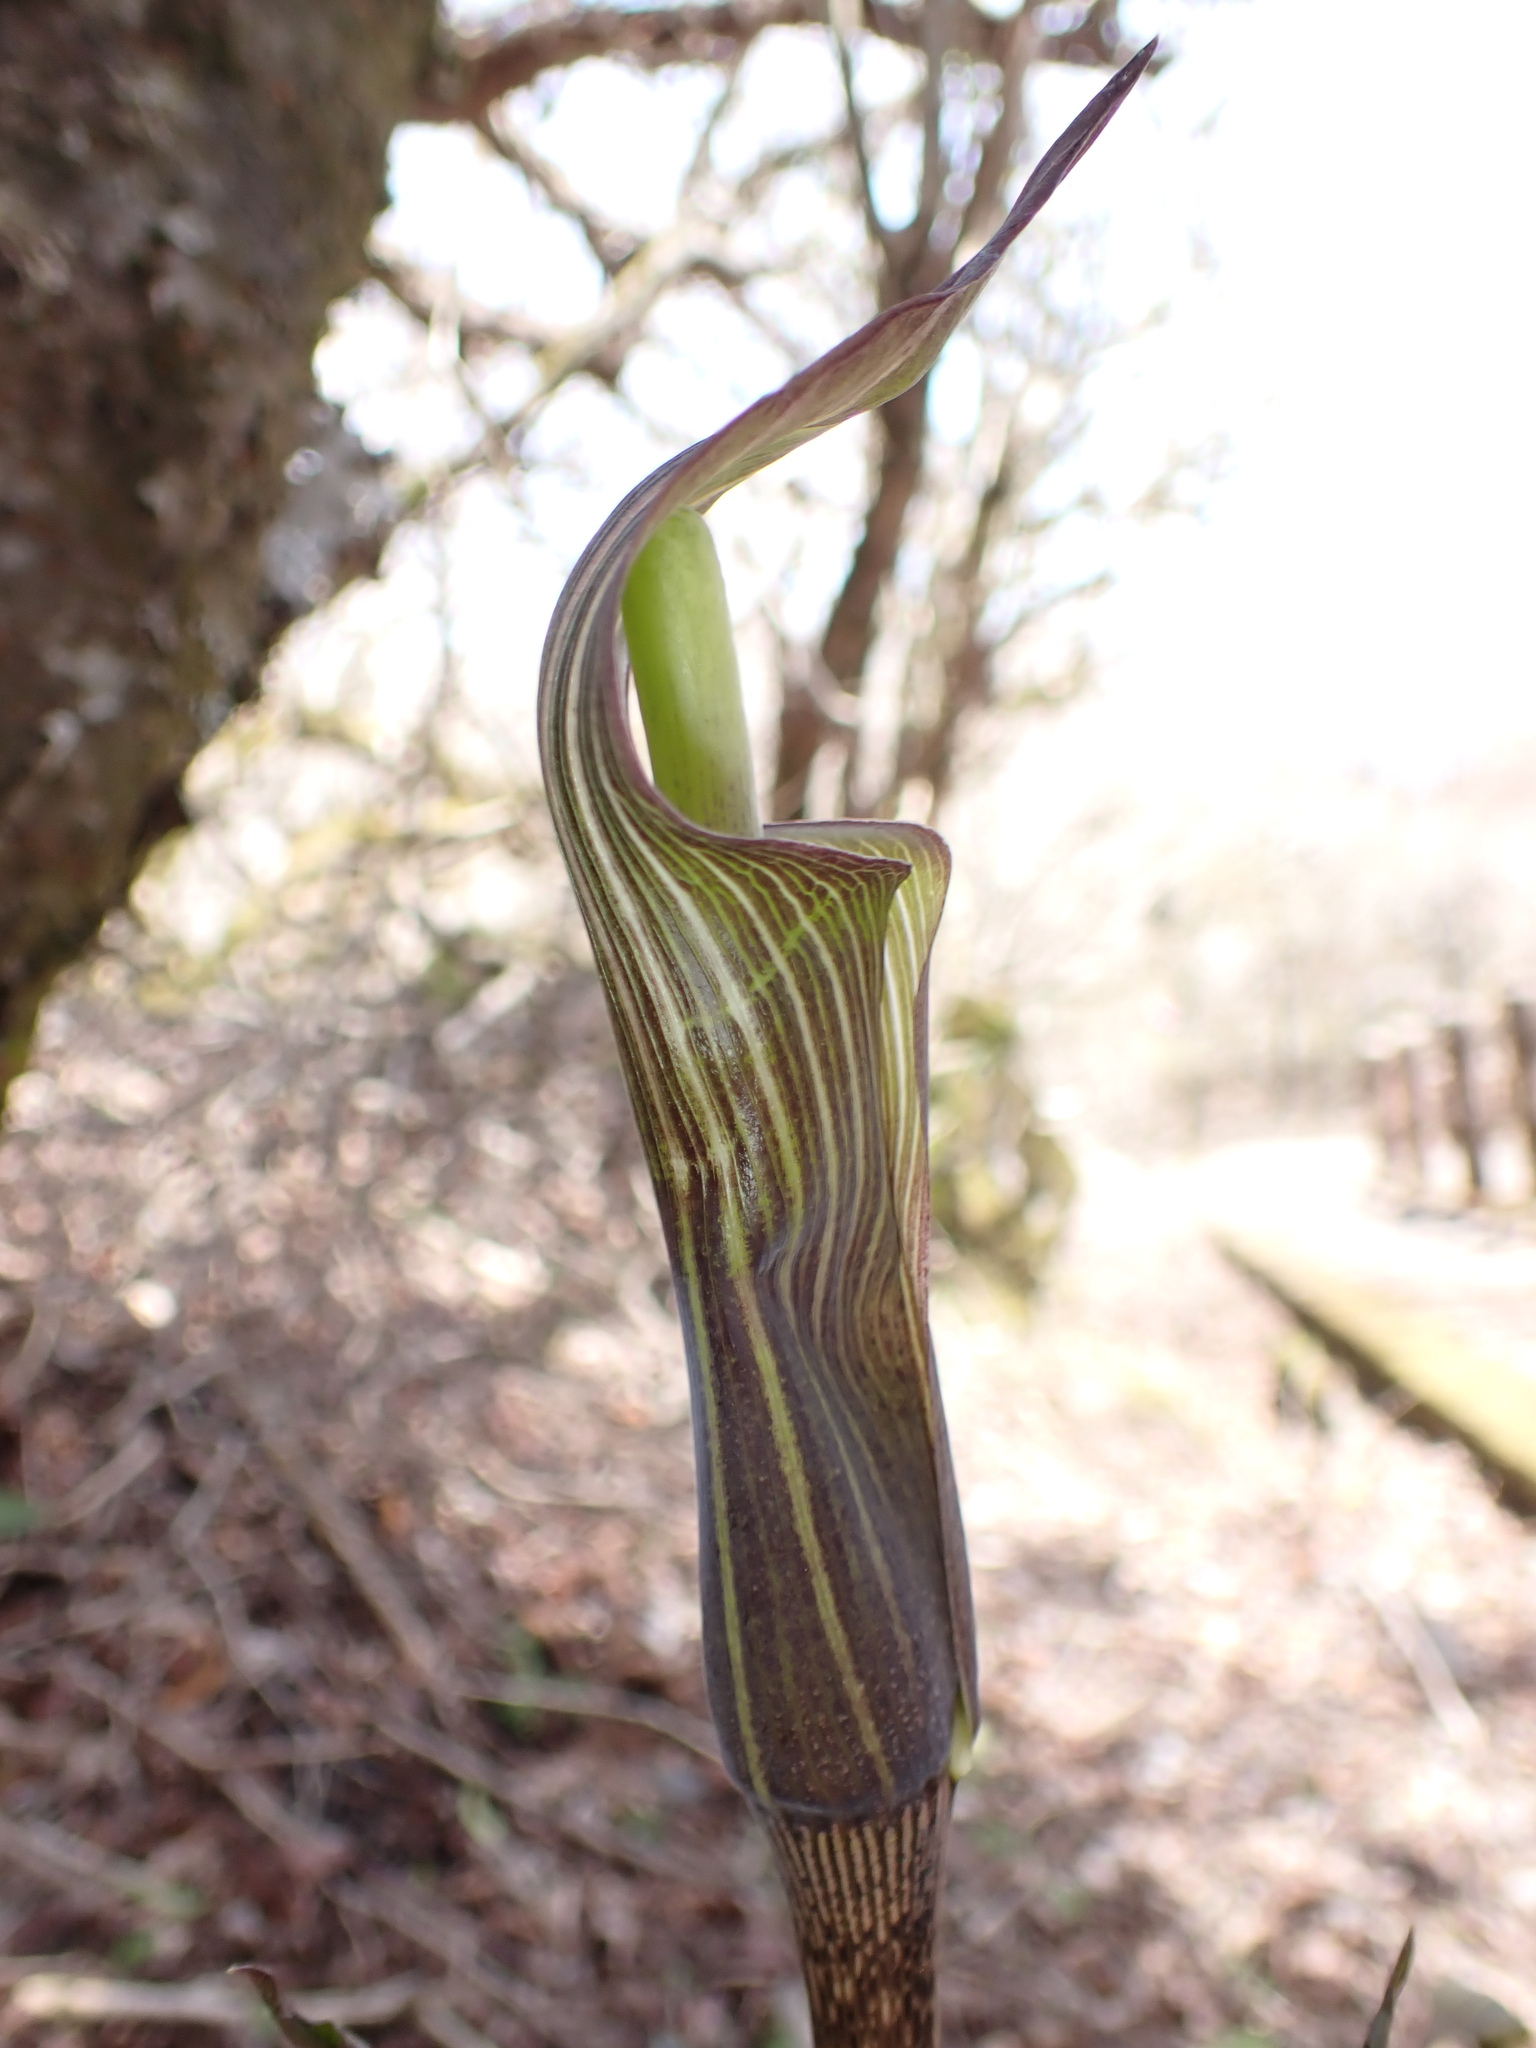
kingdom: Plantae
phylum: Tracheophyta
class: Liliopsida
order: Alismatales
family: Araceae
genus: Arisaema
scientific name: Arisaema japonicum
